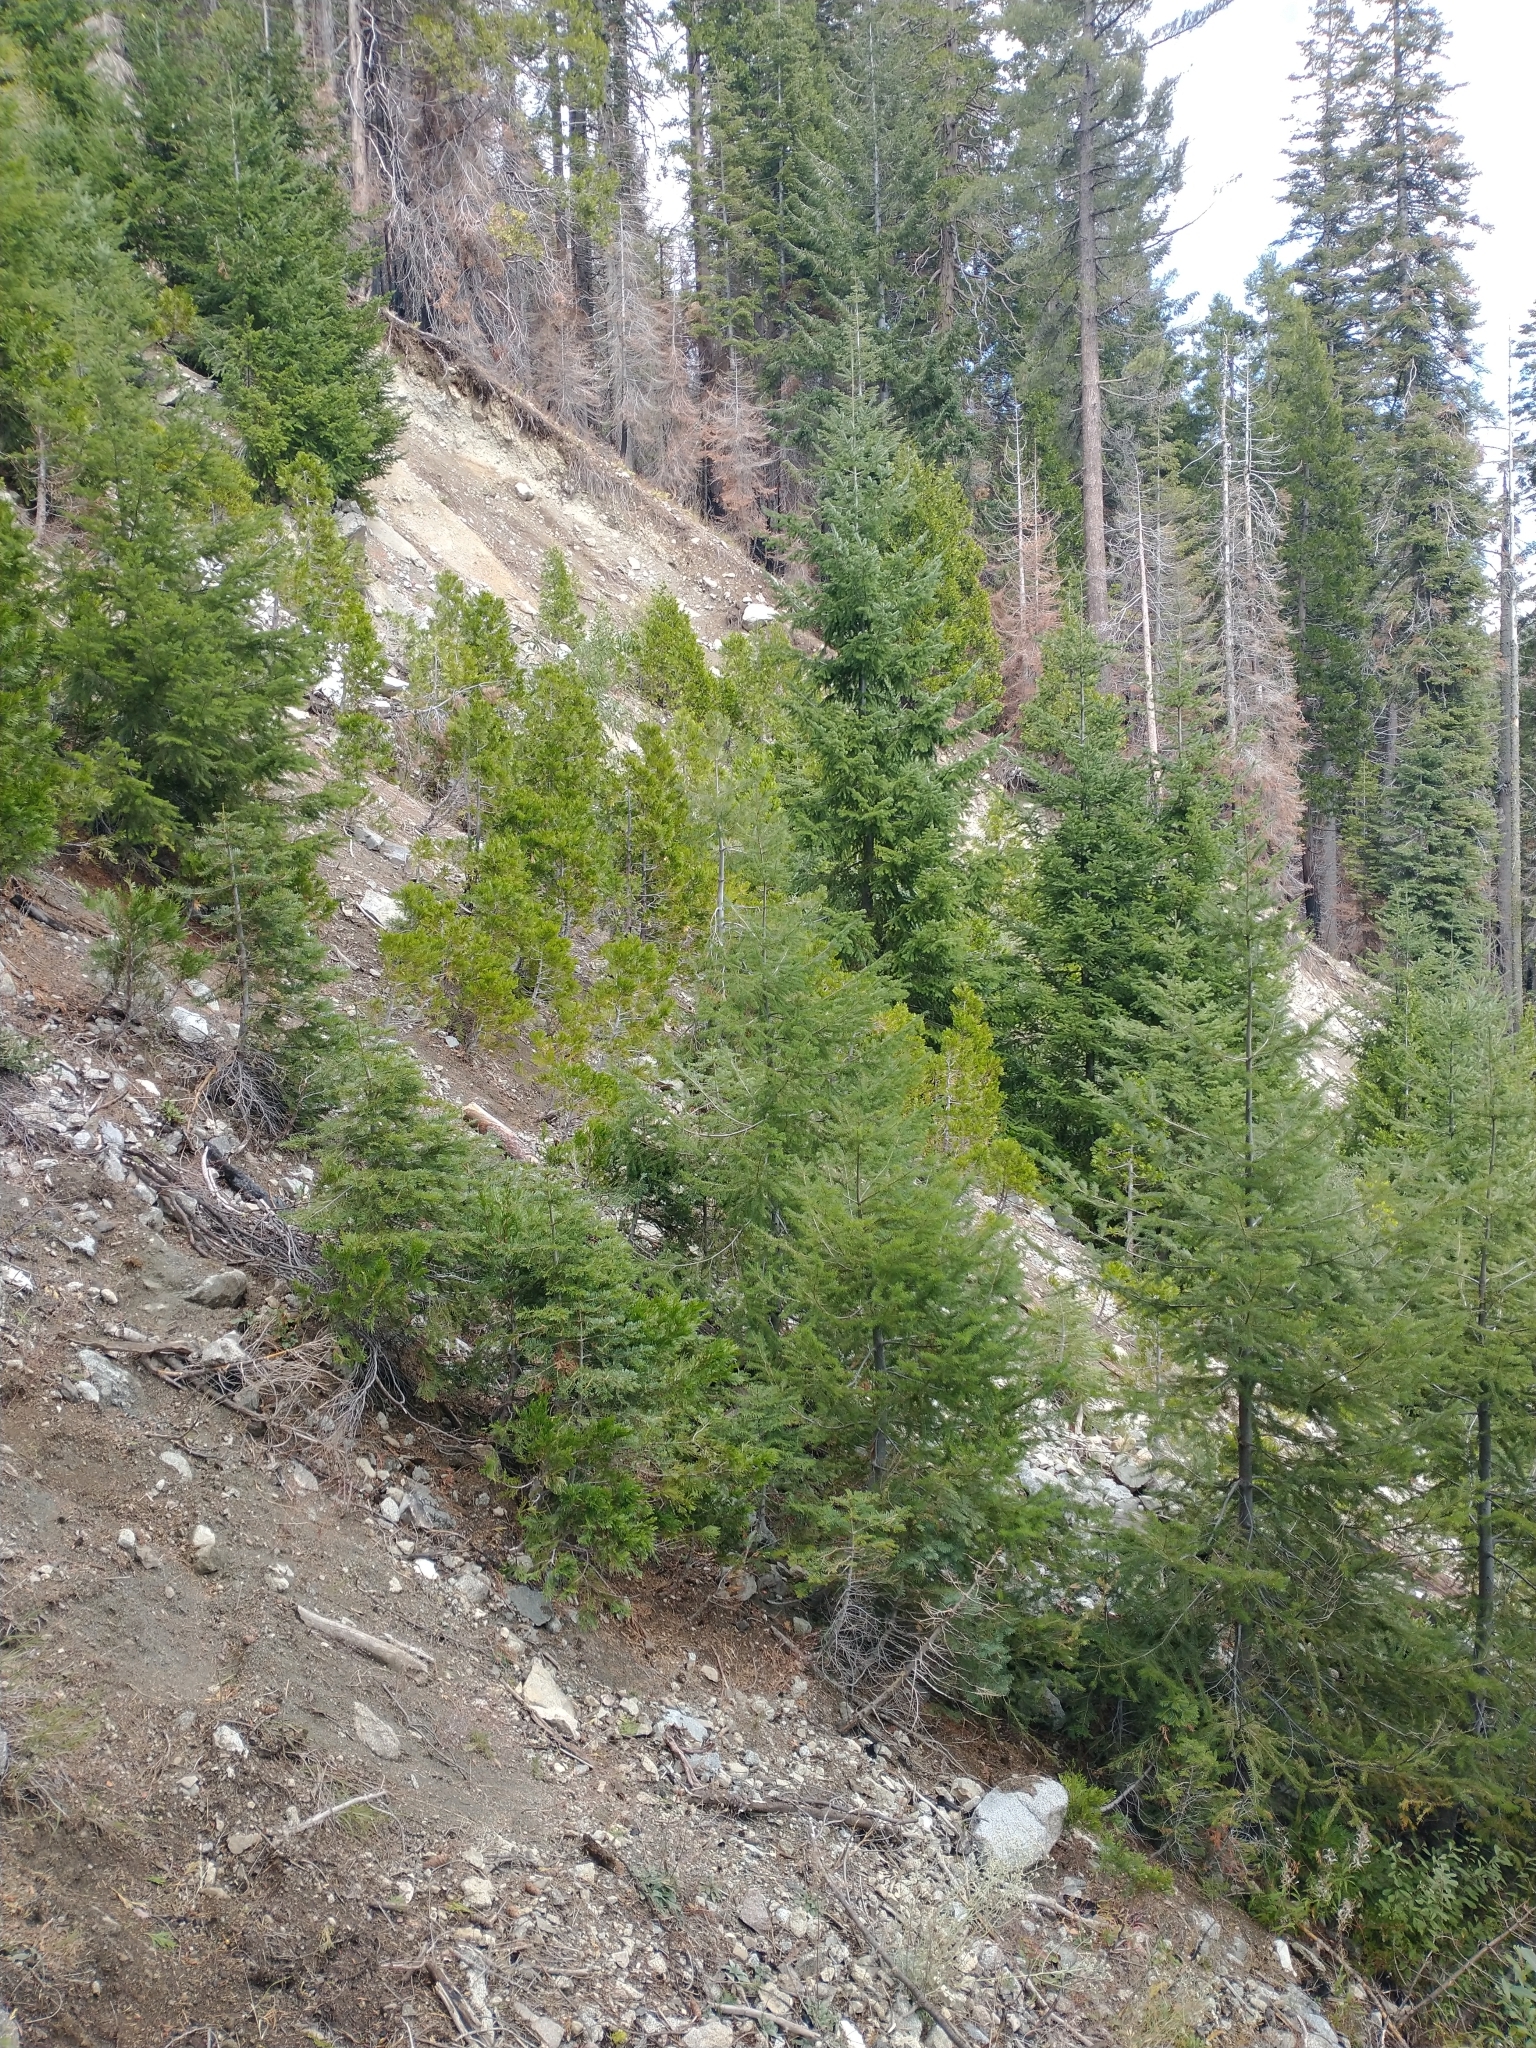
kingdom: Plantae
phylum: Tracheophyta
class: Pinopsida
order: Pinales
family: Pinaceae
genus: Pseudotsuga
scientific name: Pseudotsuga menziesii
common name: Douglas fir
